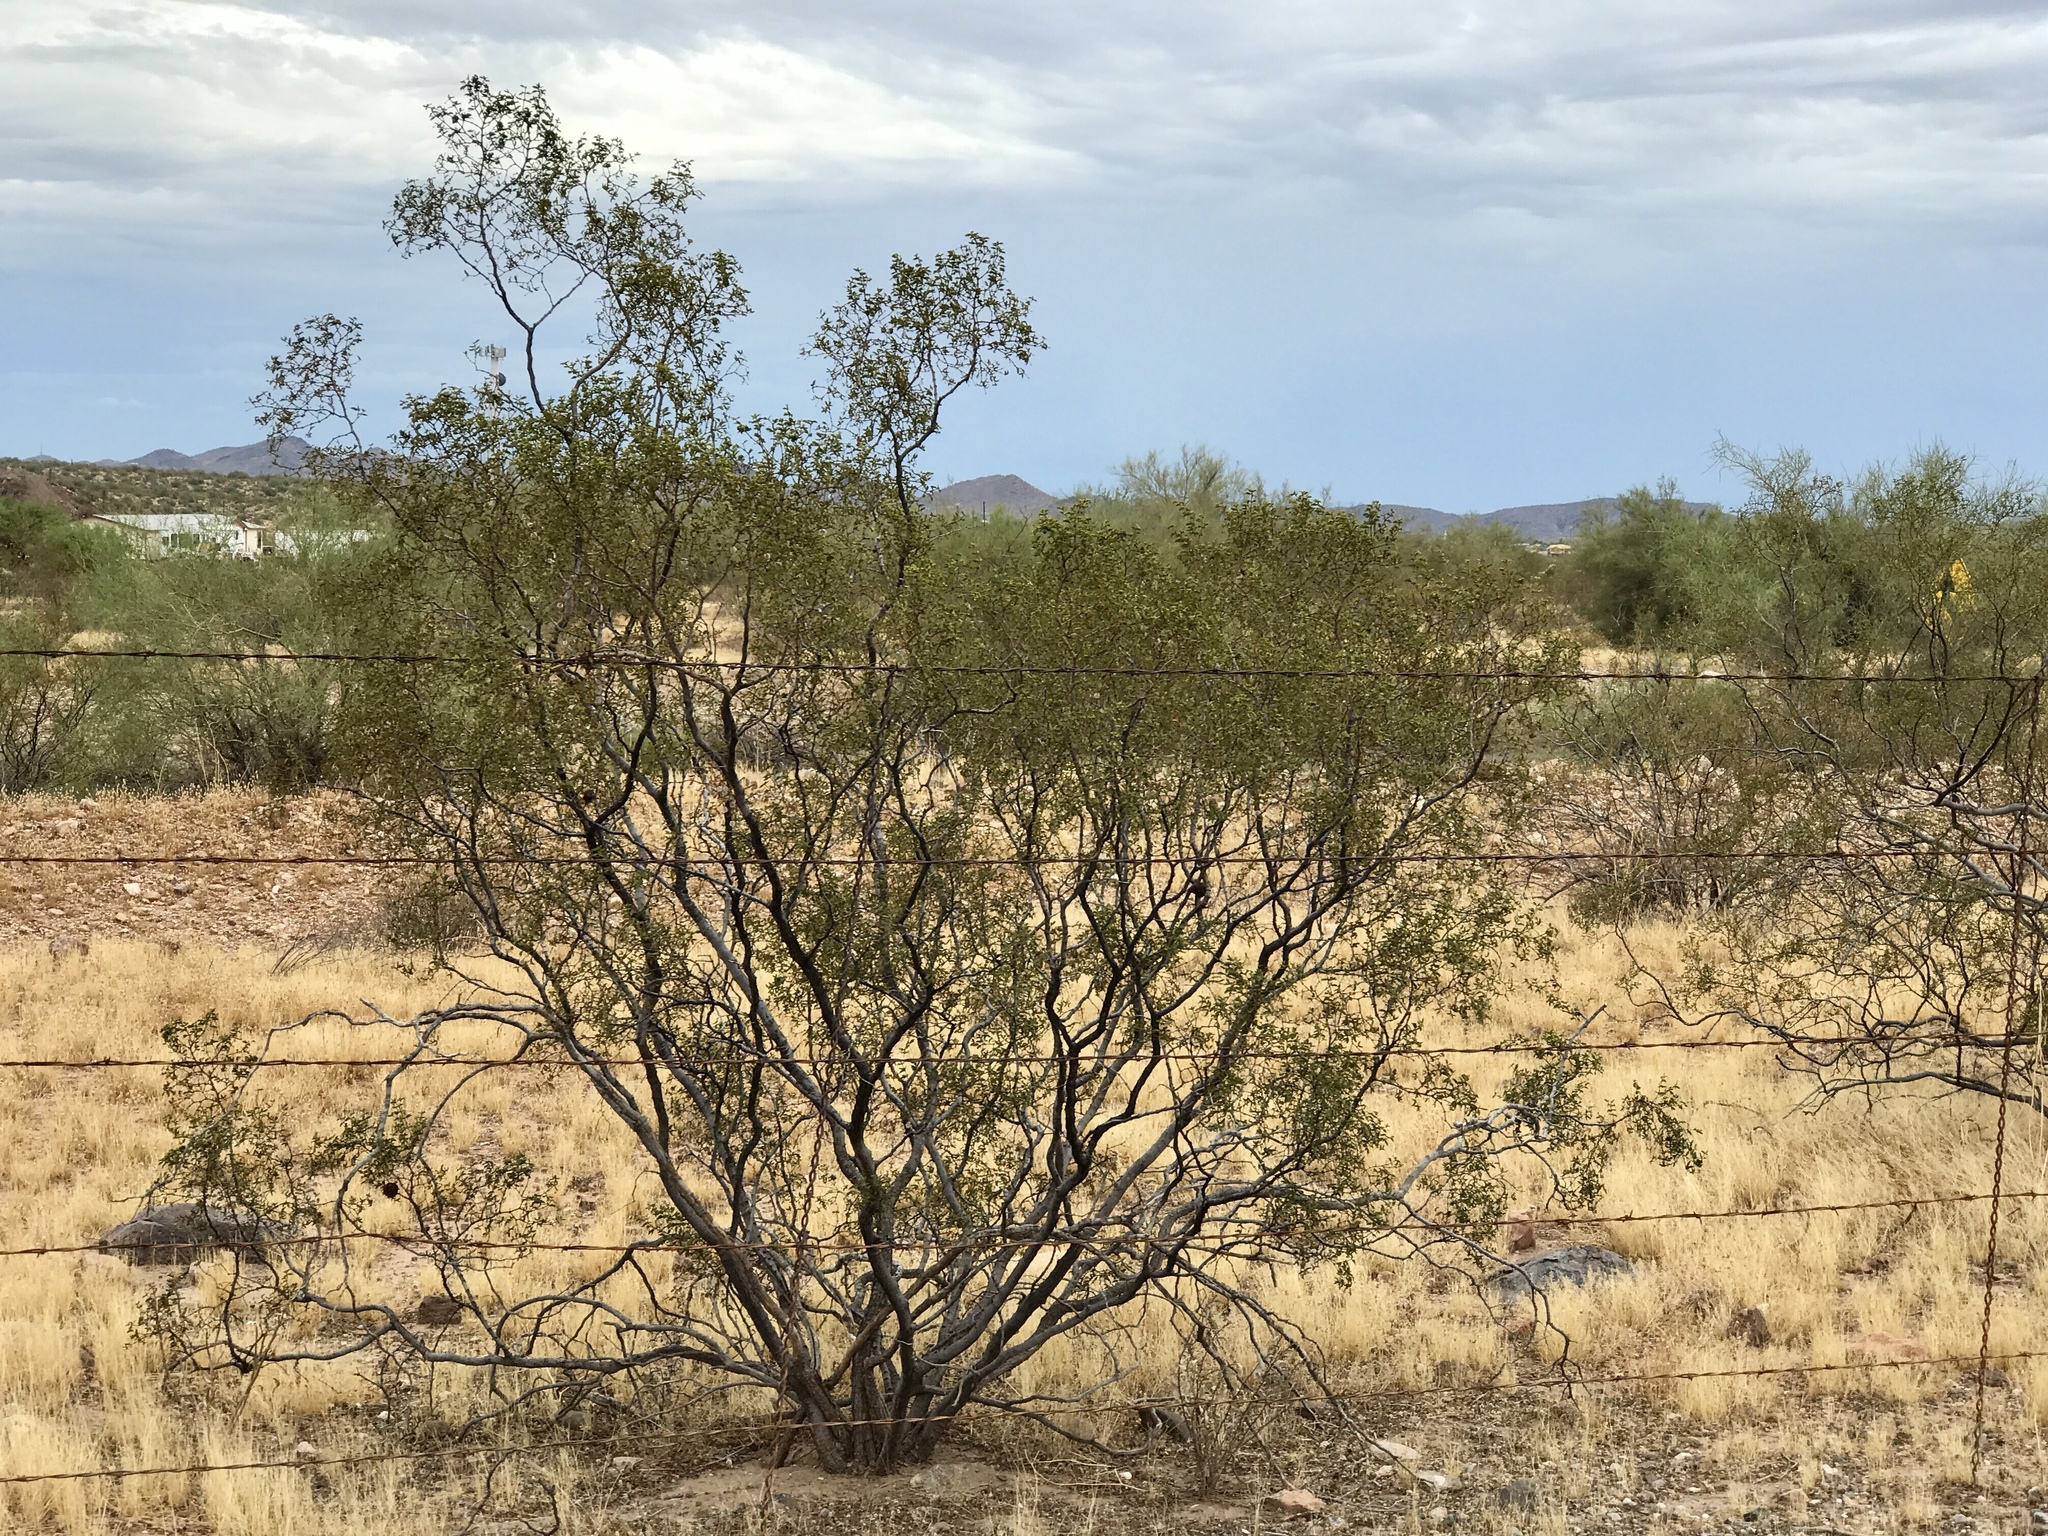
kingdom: Plantae
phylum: Tracheophyta
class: Magnoliopsida
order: Zygophyllales
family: Zygophyllaceae
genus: Larrea
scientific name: Larrea tridentata
